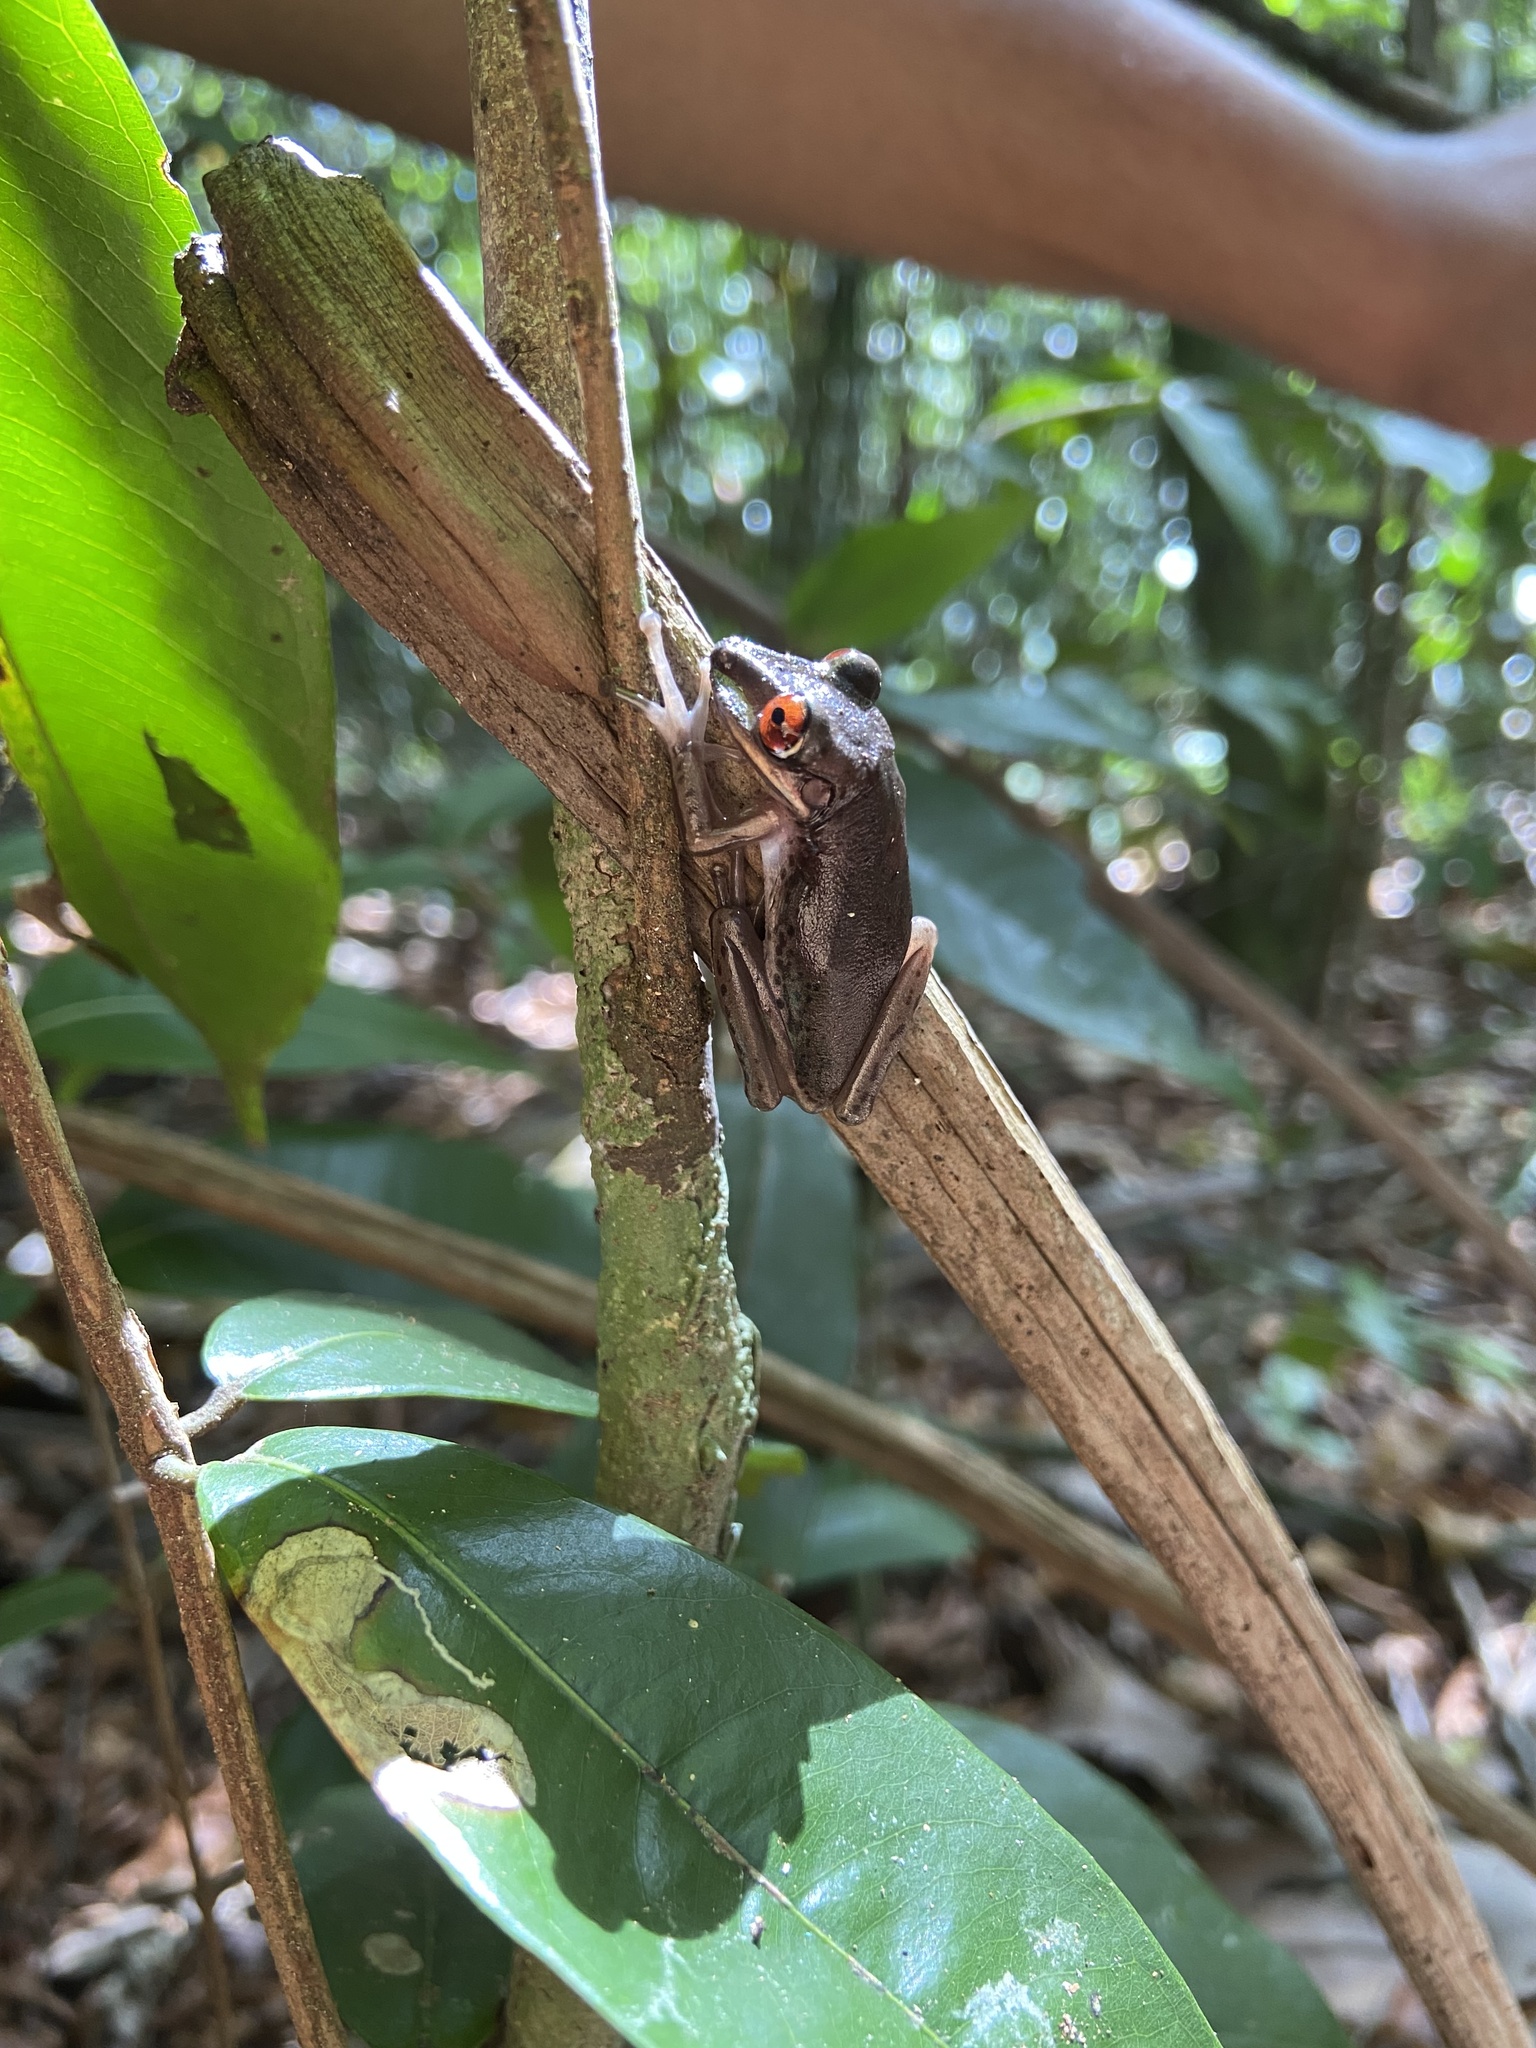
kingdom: Animalia
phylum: Chordata
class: Amphibia
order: Anura
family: Hylidae
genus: Aparasphenodon
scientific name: Aparasphenodon brunoi
